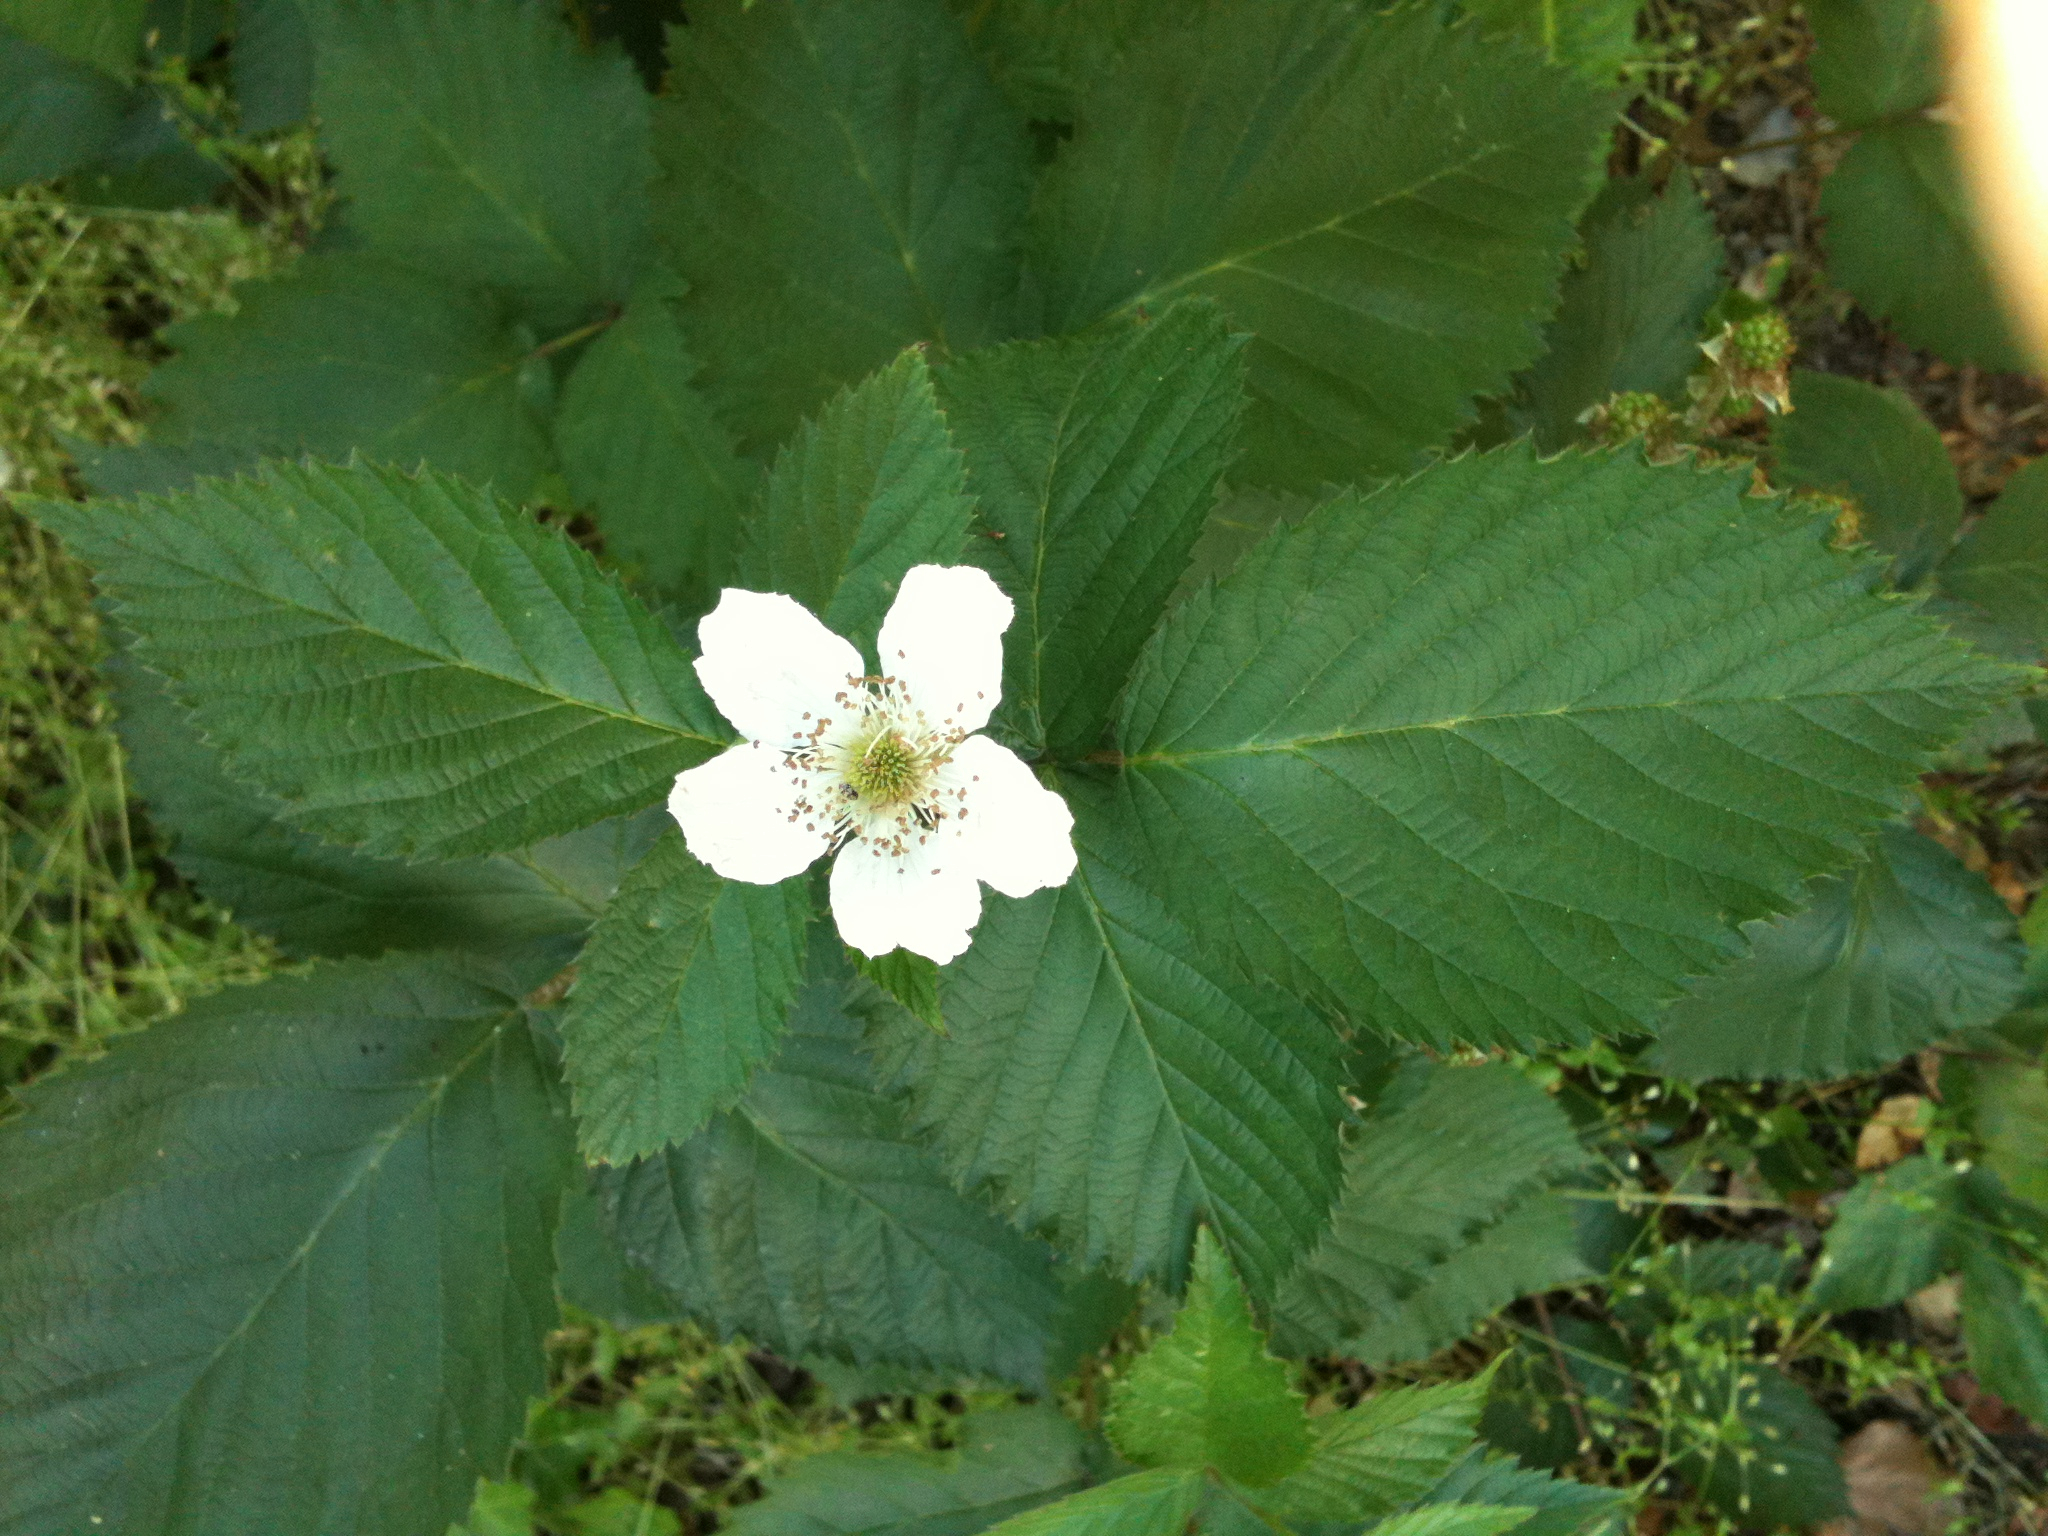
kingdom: Plantae
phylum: Tracheophyta
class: Magnoliopsida
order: Rosales
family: Rosaceae
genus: Rubus
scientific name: Rubus allegheniensis
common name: Allegheny blackberry
